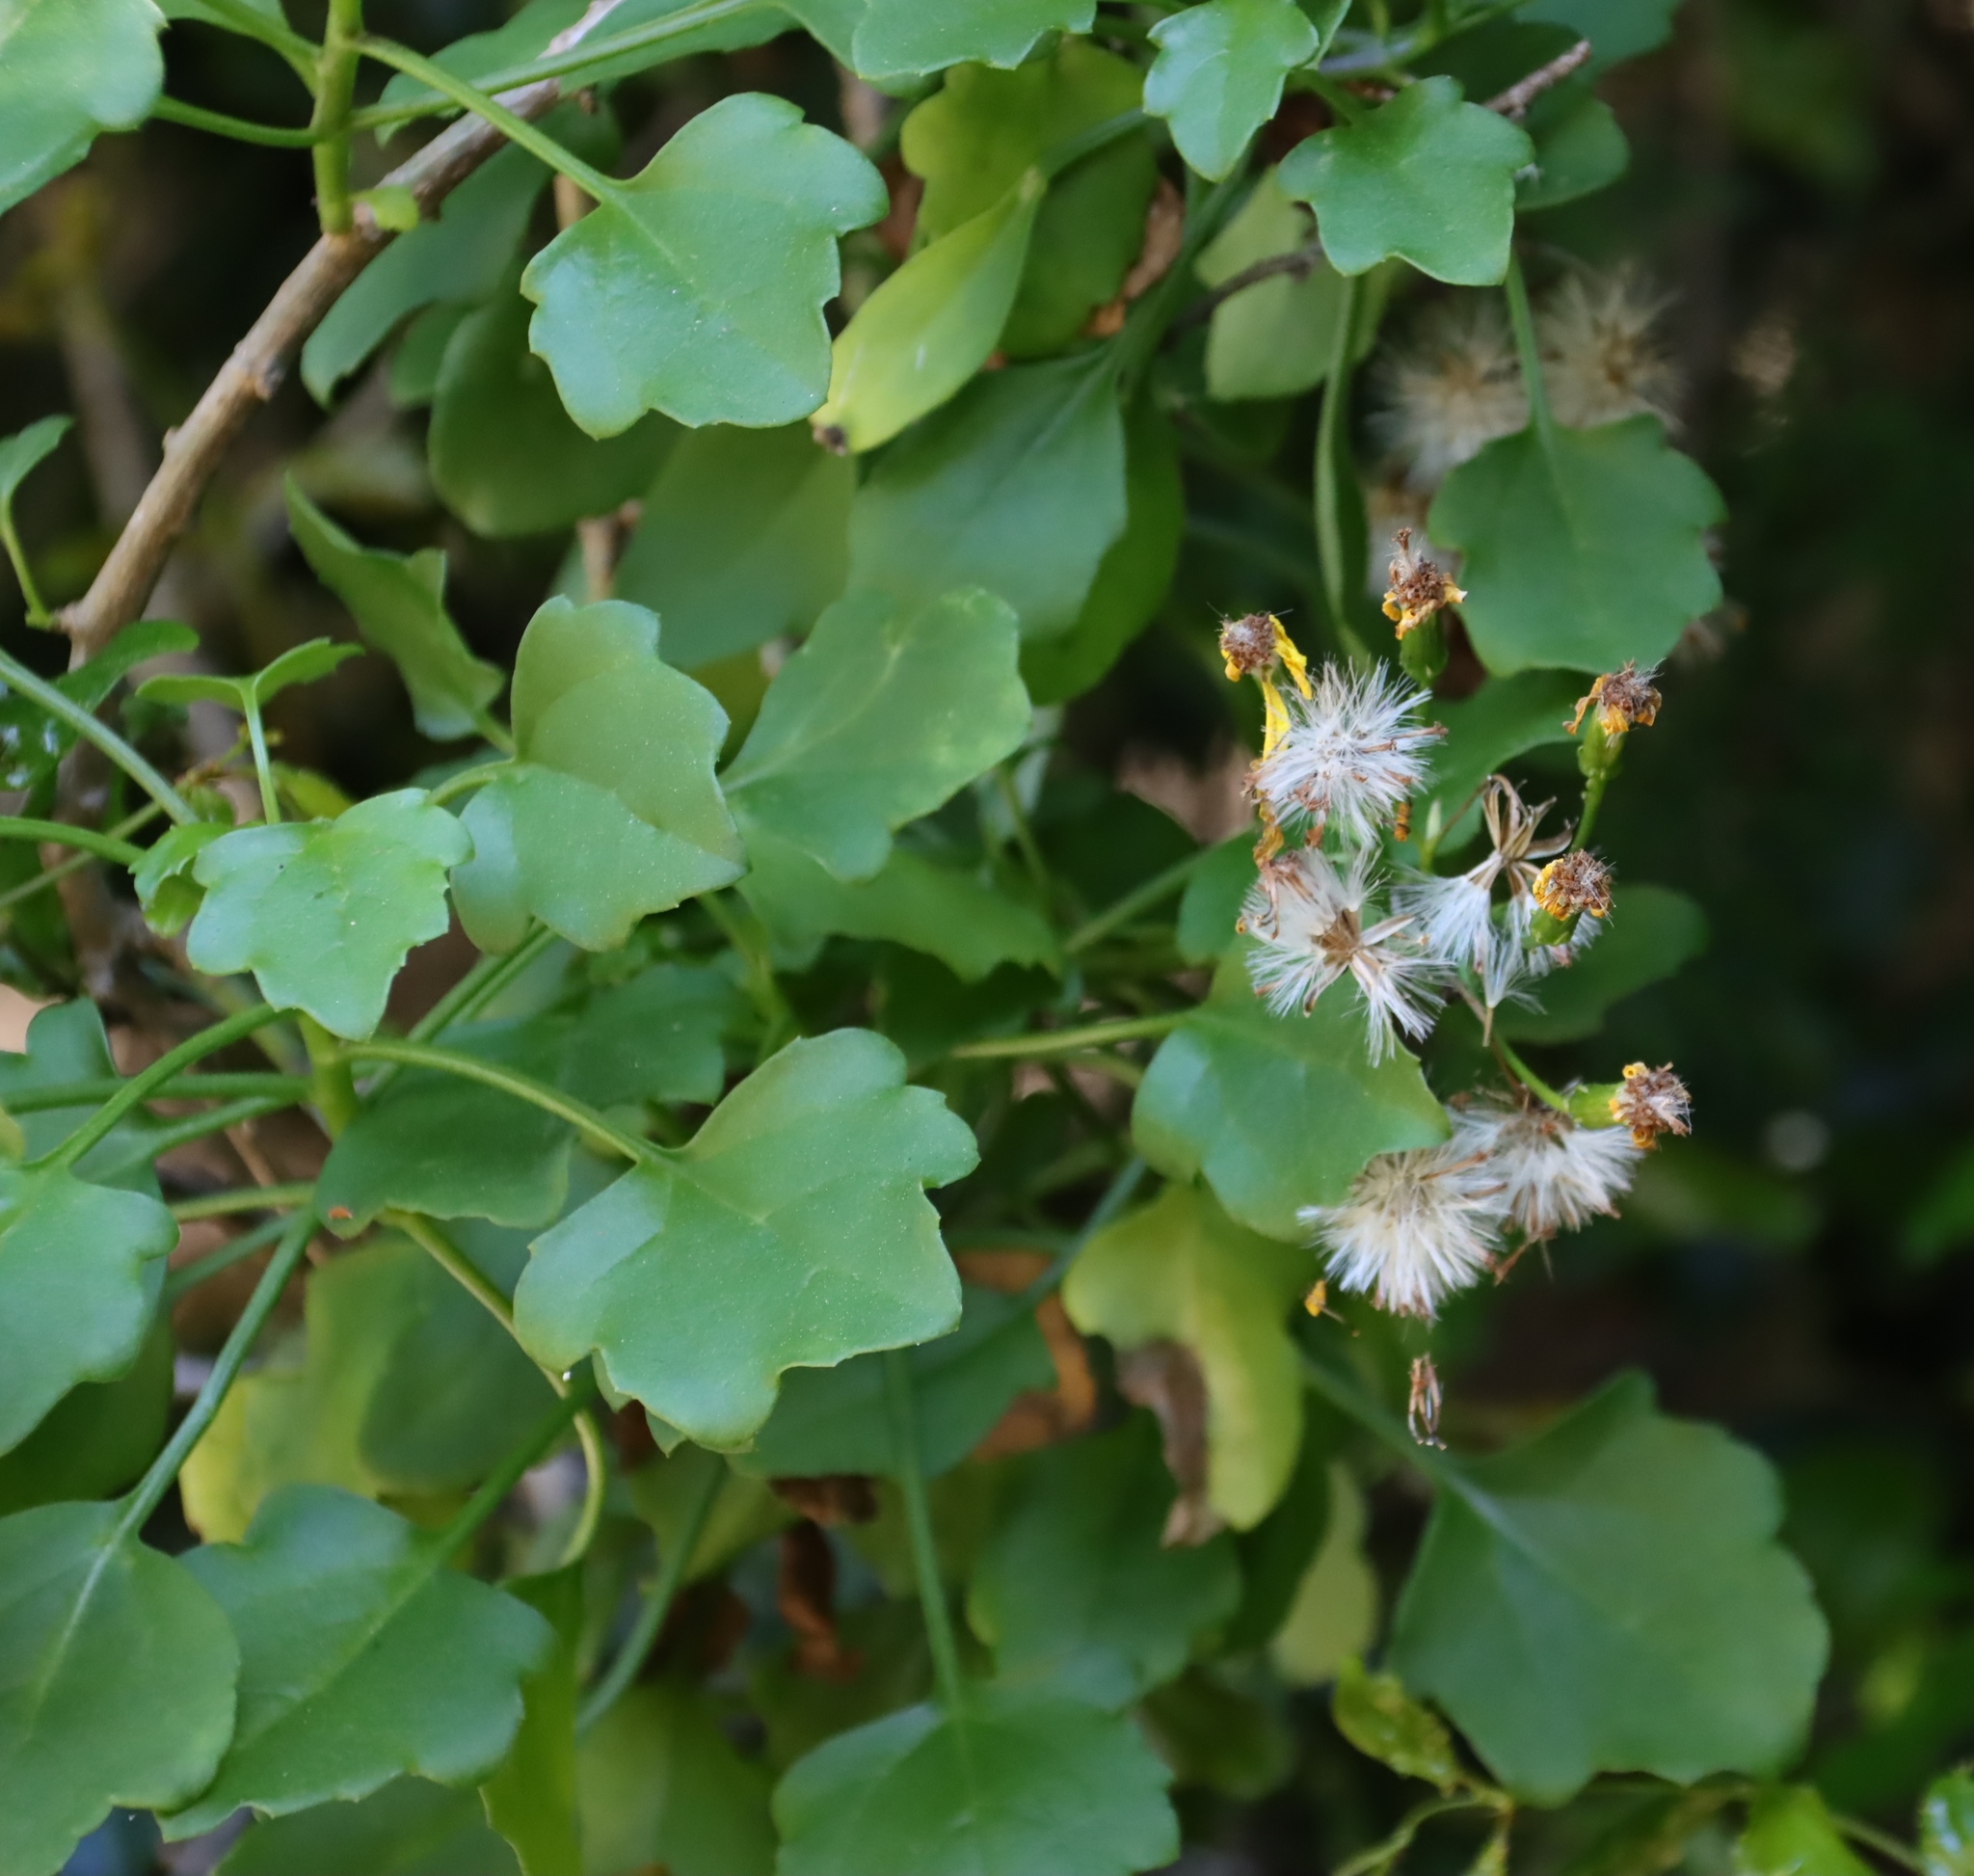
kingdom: Plantae
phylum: Tracheophyta
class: Magnoliopsida
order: Asterales
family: Asteraceae
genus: Cineraria
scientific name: Cineraria lobata
